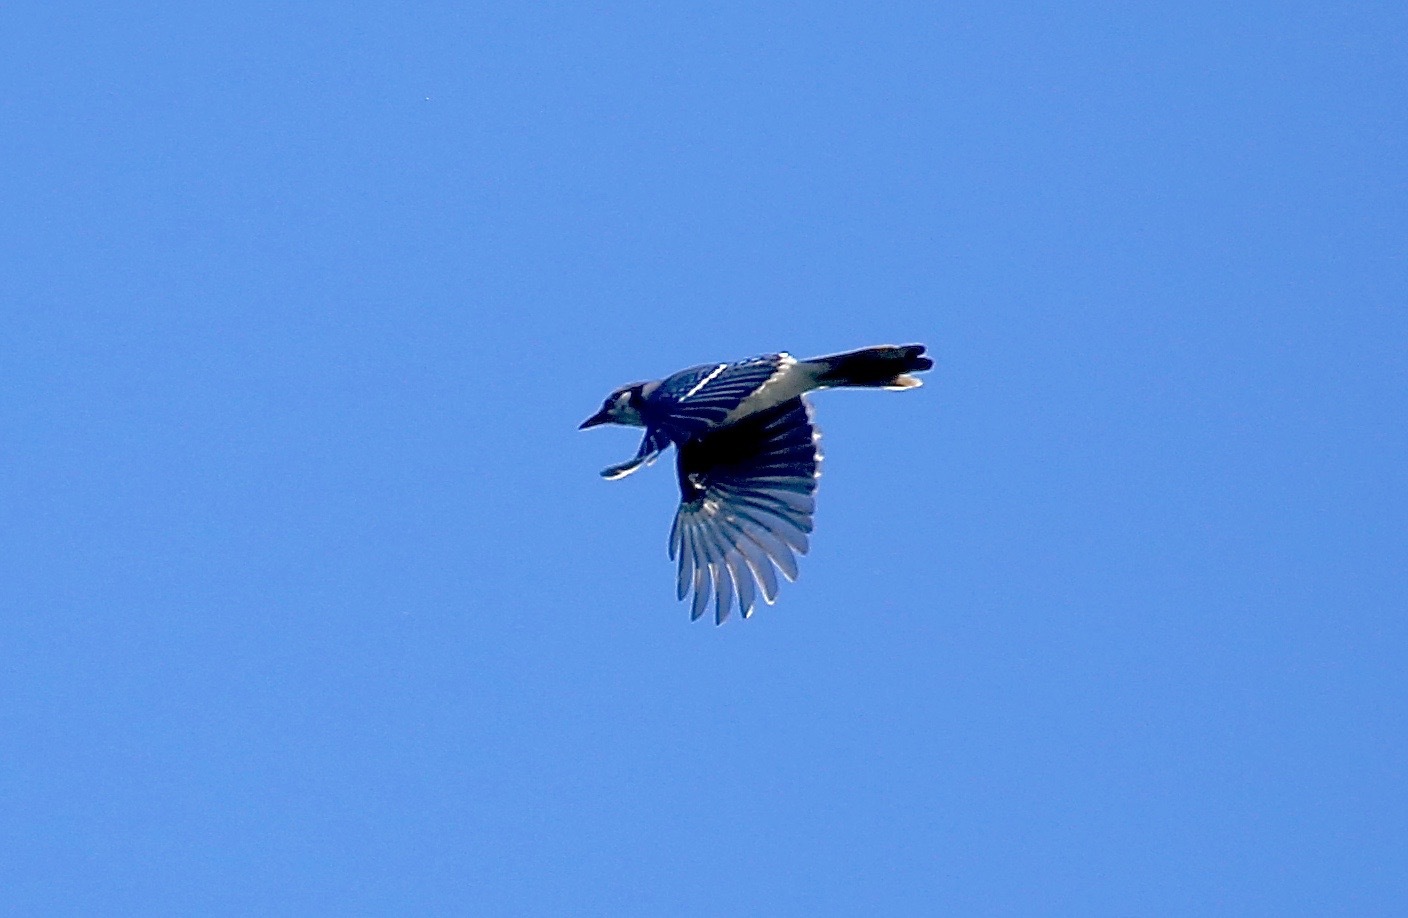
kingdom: Animalia
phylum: Chordata
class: Aves
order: Passeriformes
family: Corvidae
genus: Cyanocitta
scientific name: Cyanocitta cristata
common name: Blue jay
